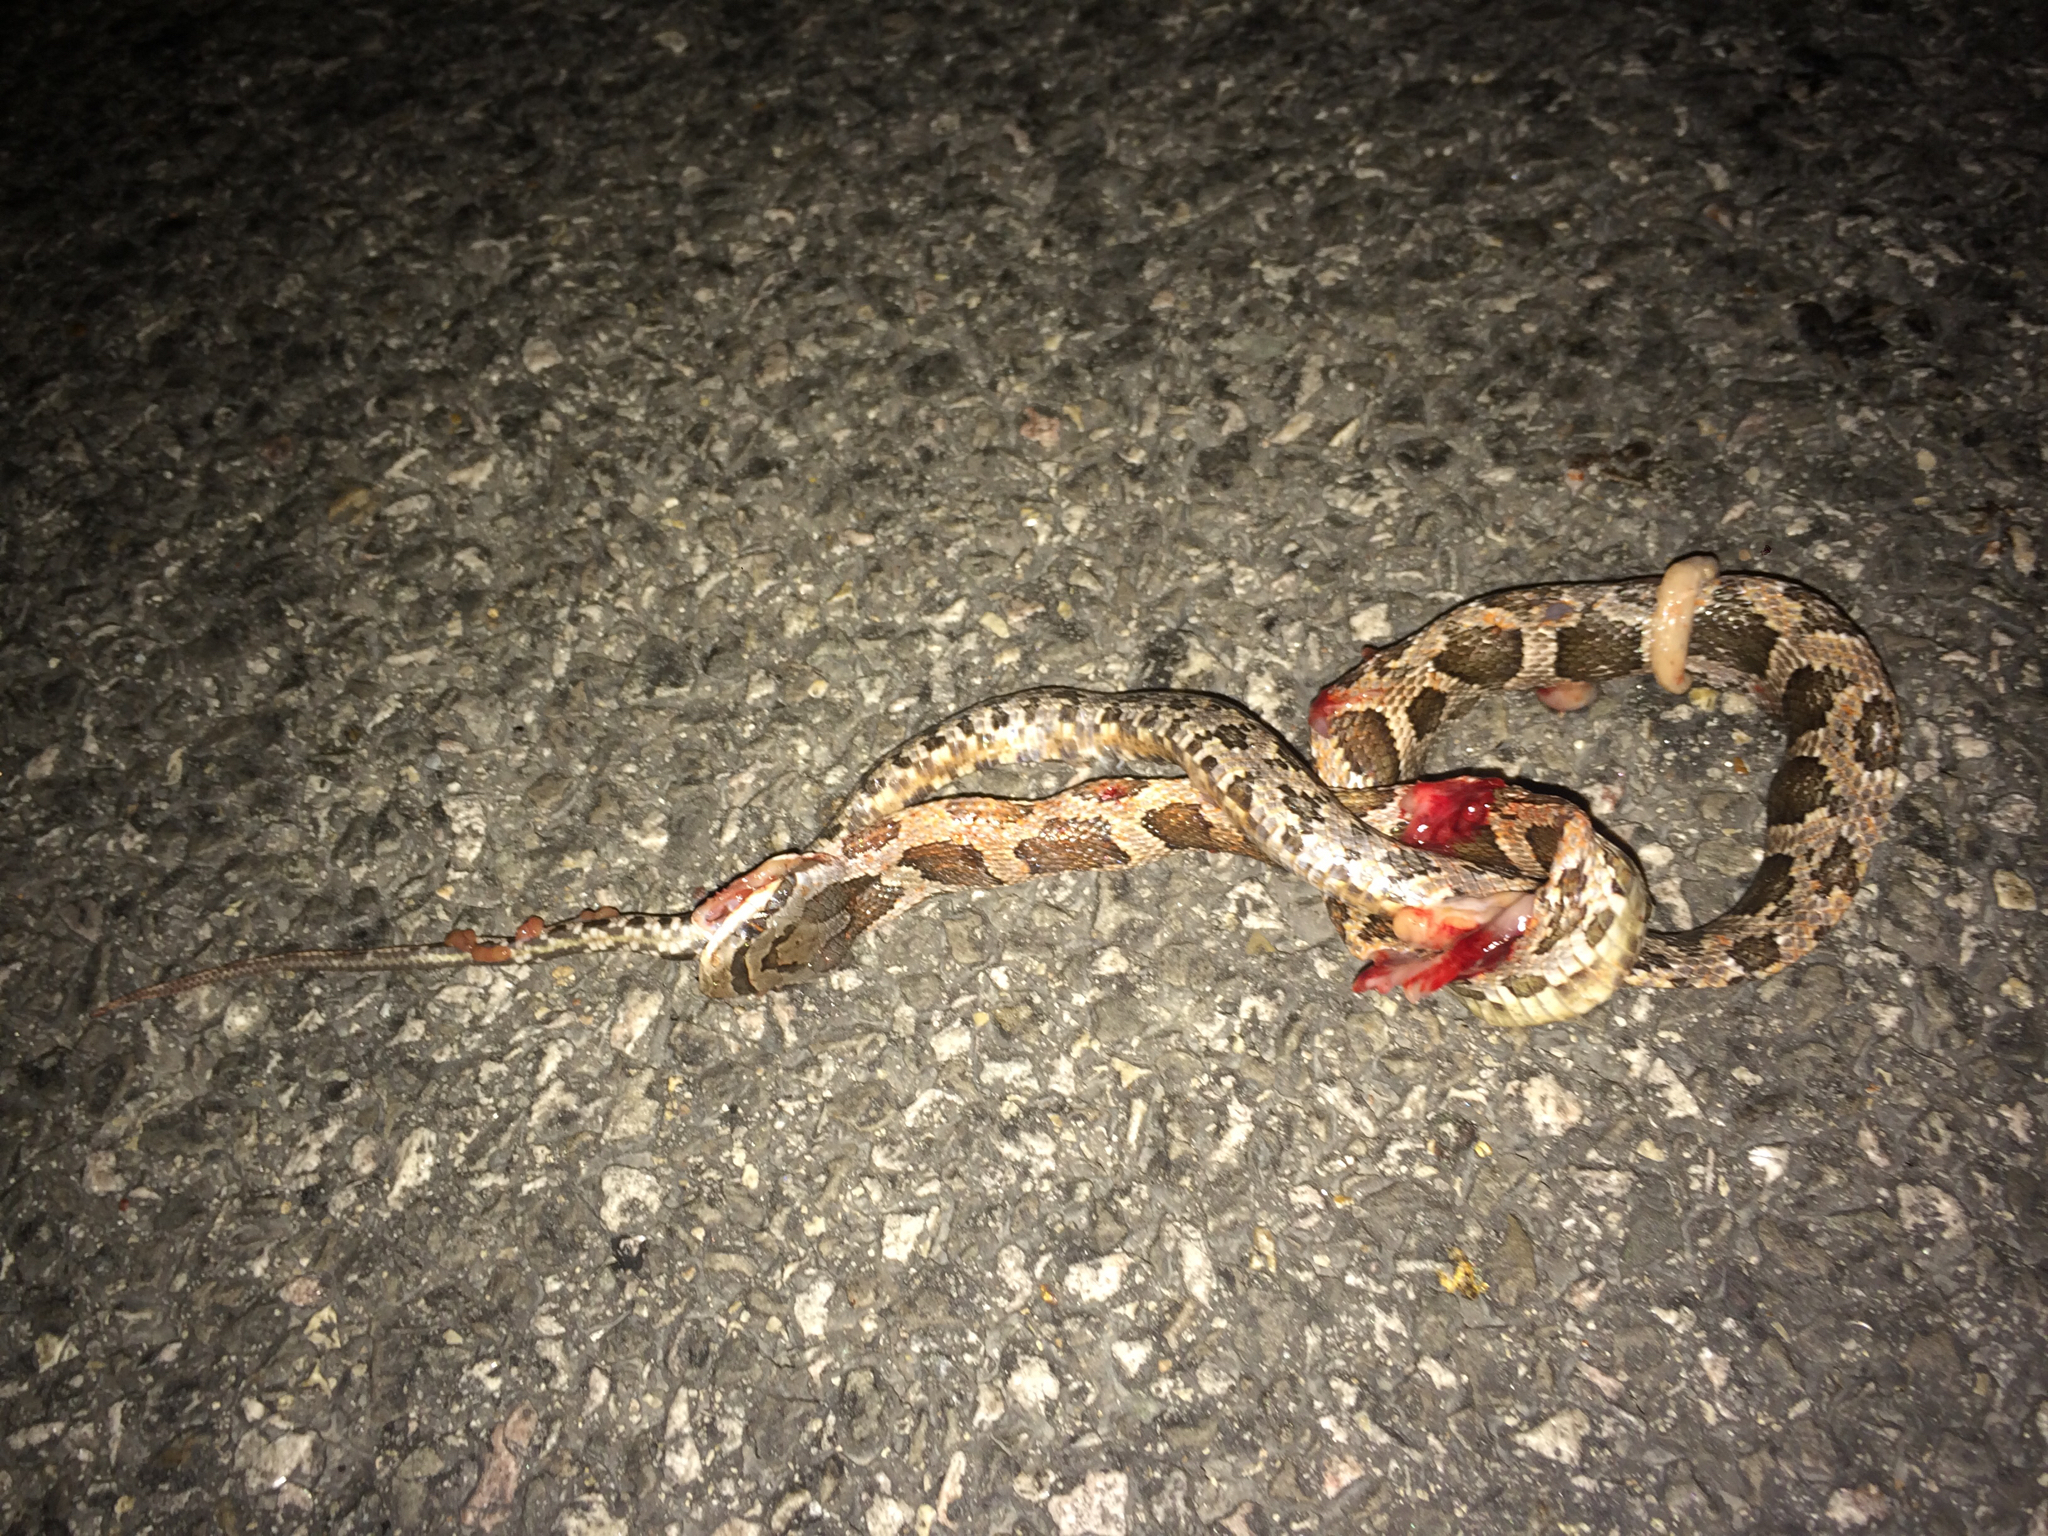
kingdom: Animalia
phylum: Chordata
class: Squamata
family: Colubridae
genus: Pantherophis
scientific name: Pantherophis obsoletus
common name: Black rat snake
